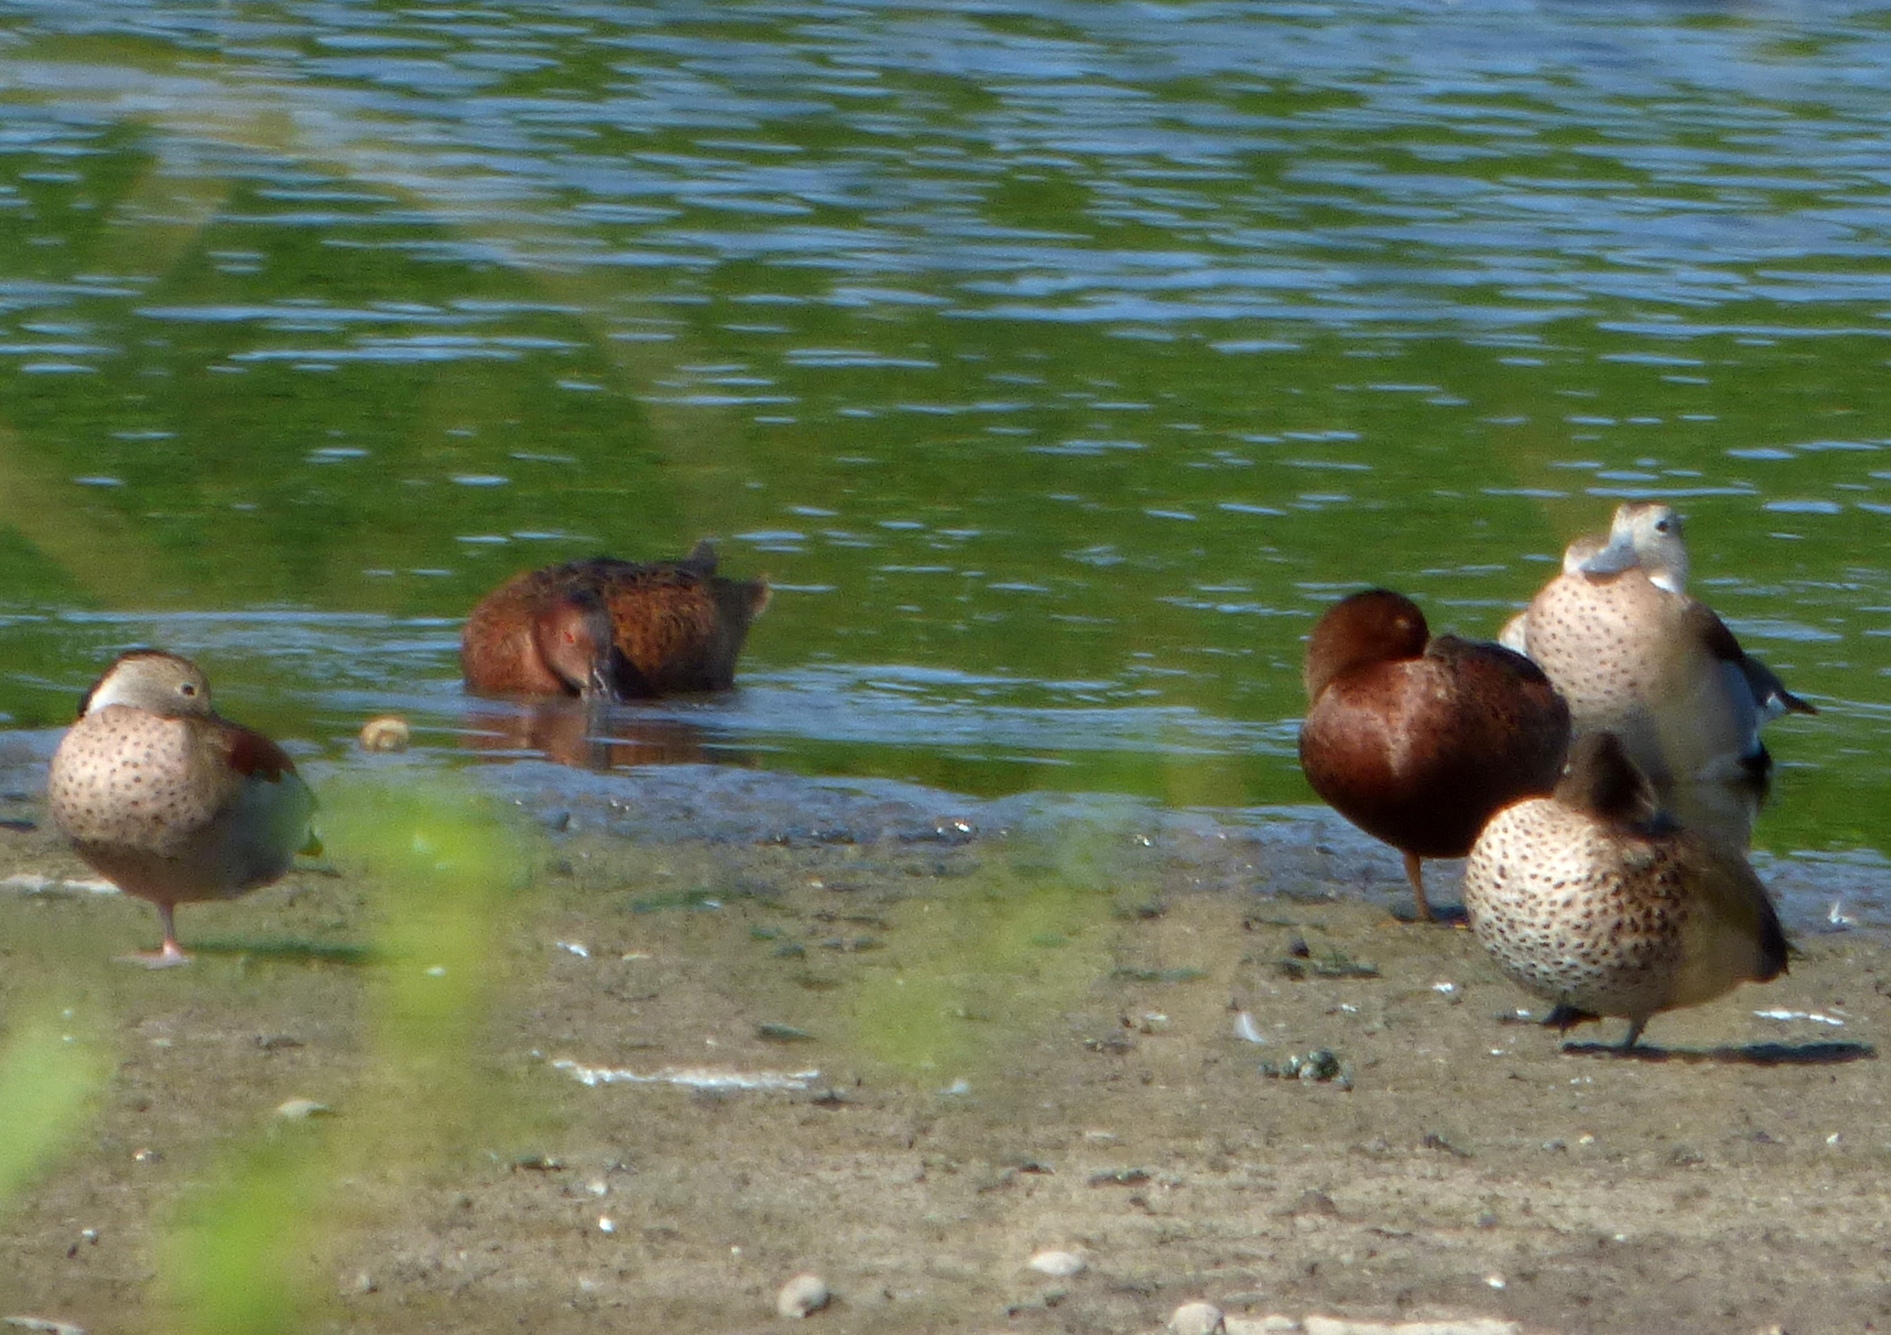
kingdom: Animalia
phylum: Chordata
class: Aves
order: Anseriformes
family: Anatidae
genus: Spatula
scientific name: Spatula cyanoptera
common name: Cinnamon teal
